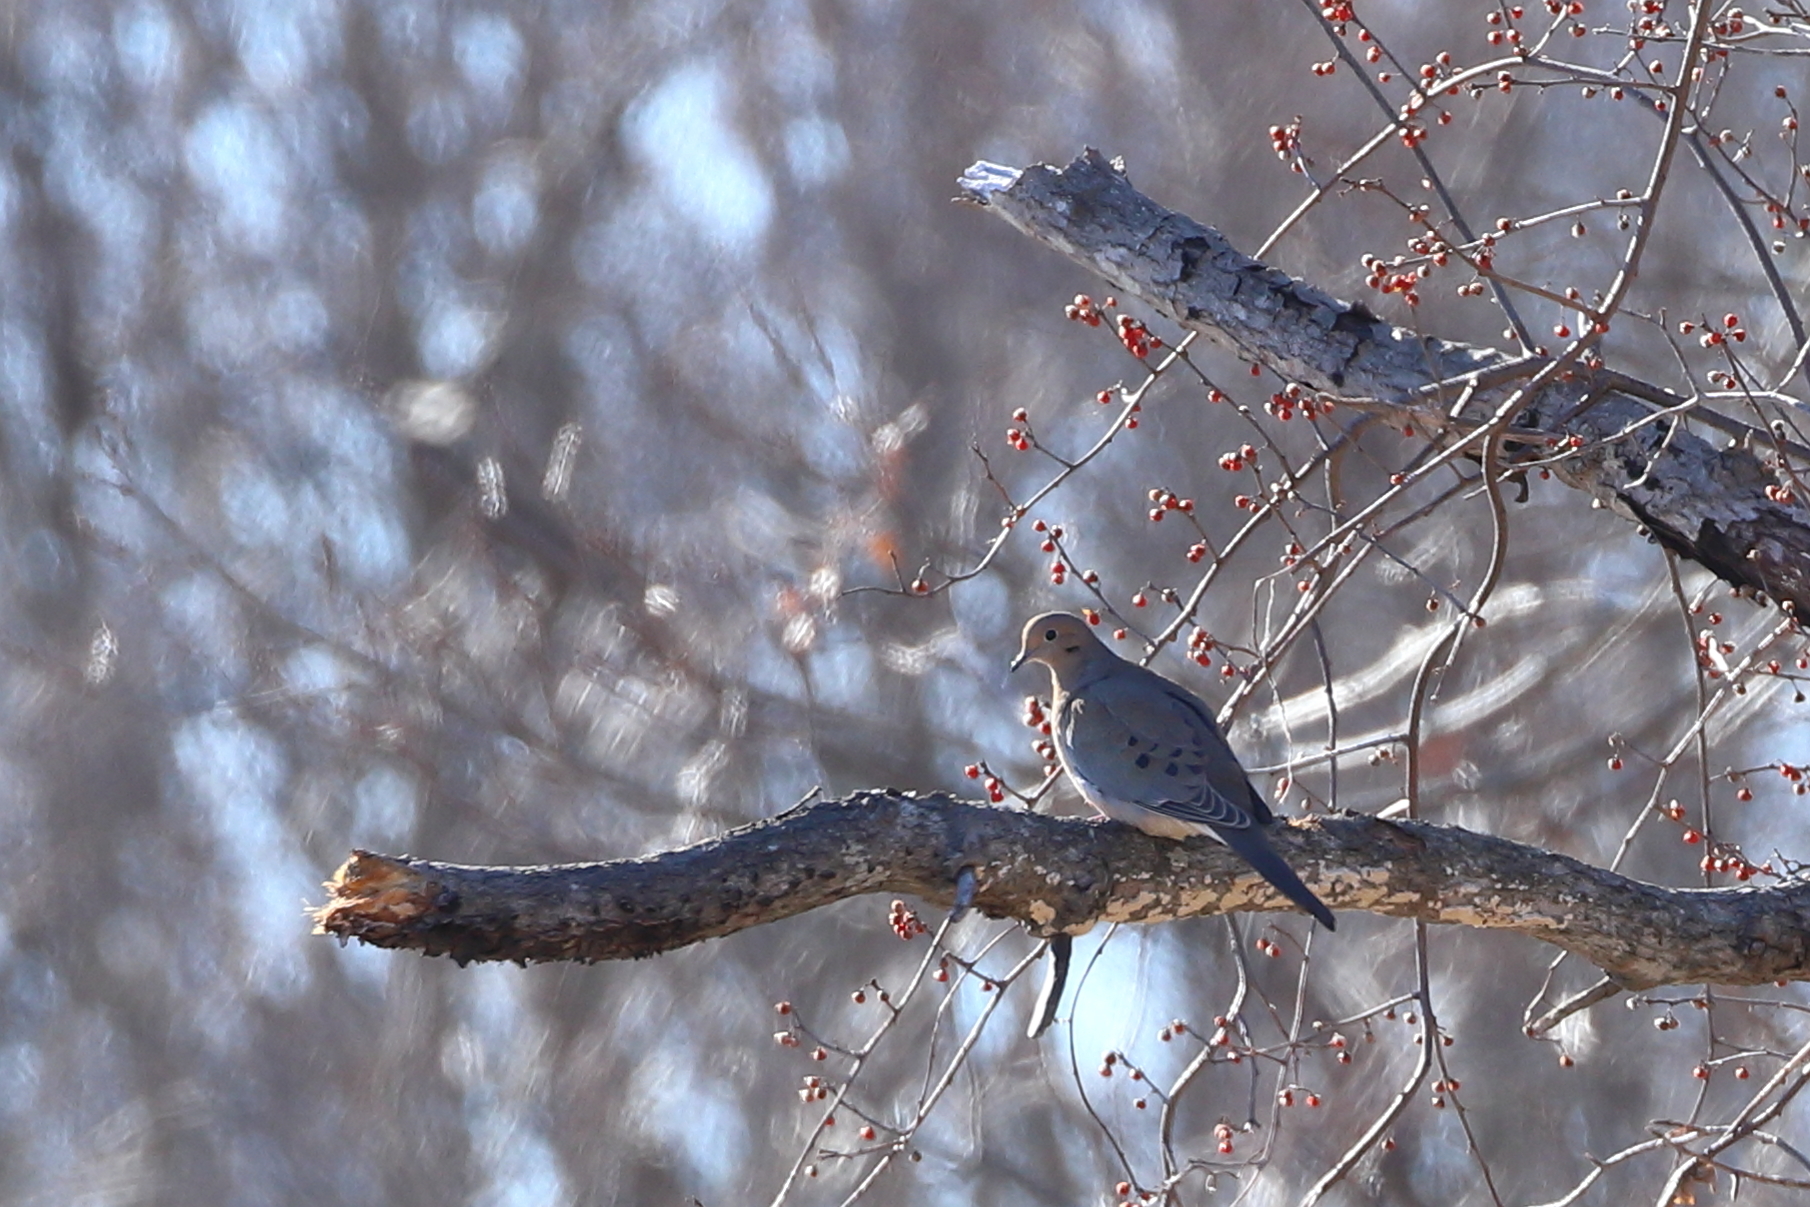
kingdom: Animalia
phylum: Chordata
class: Aves
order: Columbiformes
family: Columbidae
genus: Zenaida
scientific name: Zenaida macroura
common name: Mourning dove
